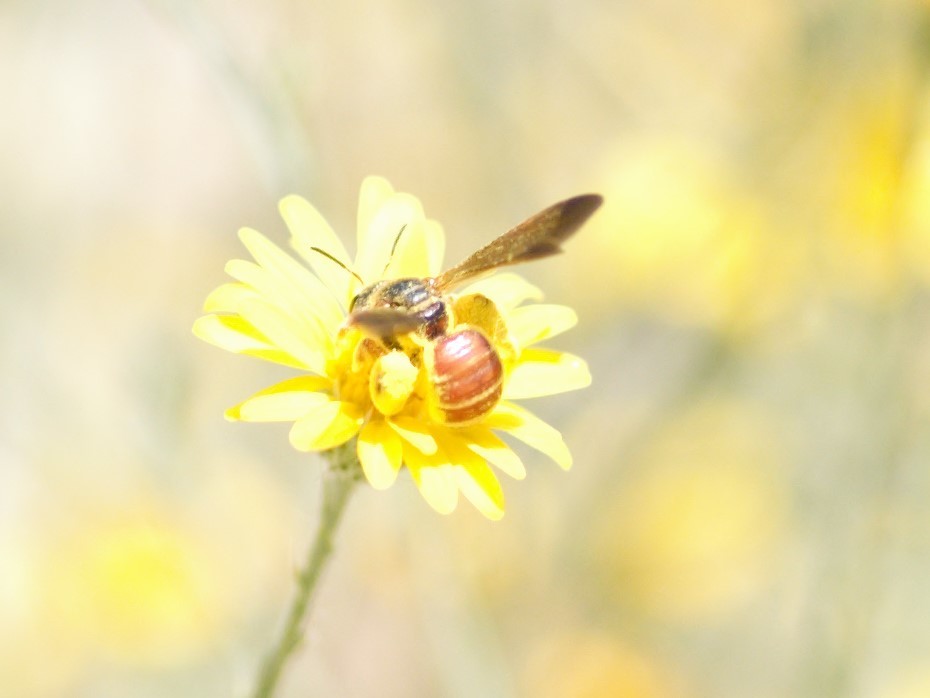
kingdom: Animalia
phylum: Arthropoda
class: Insecta
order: Hymenoptera
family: Halictidae
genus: Dieunomia
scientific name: Dieunomia nevadensis
